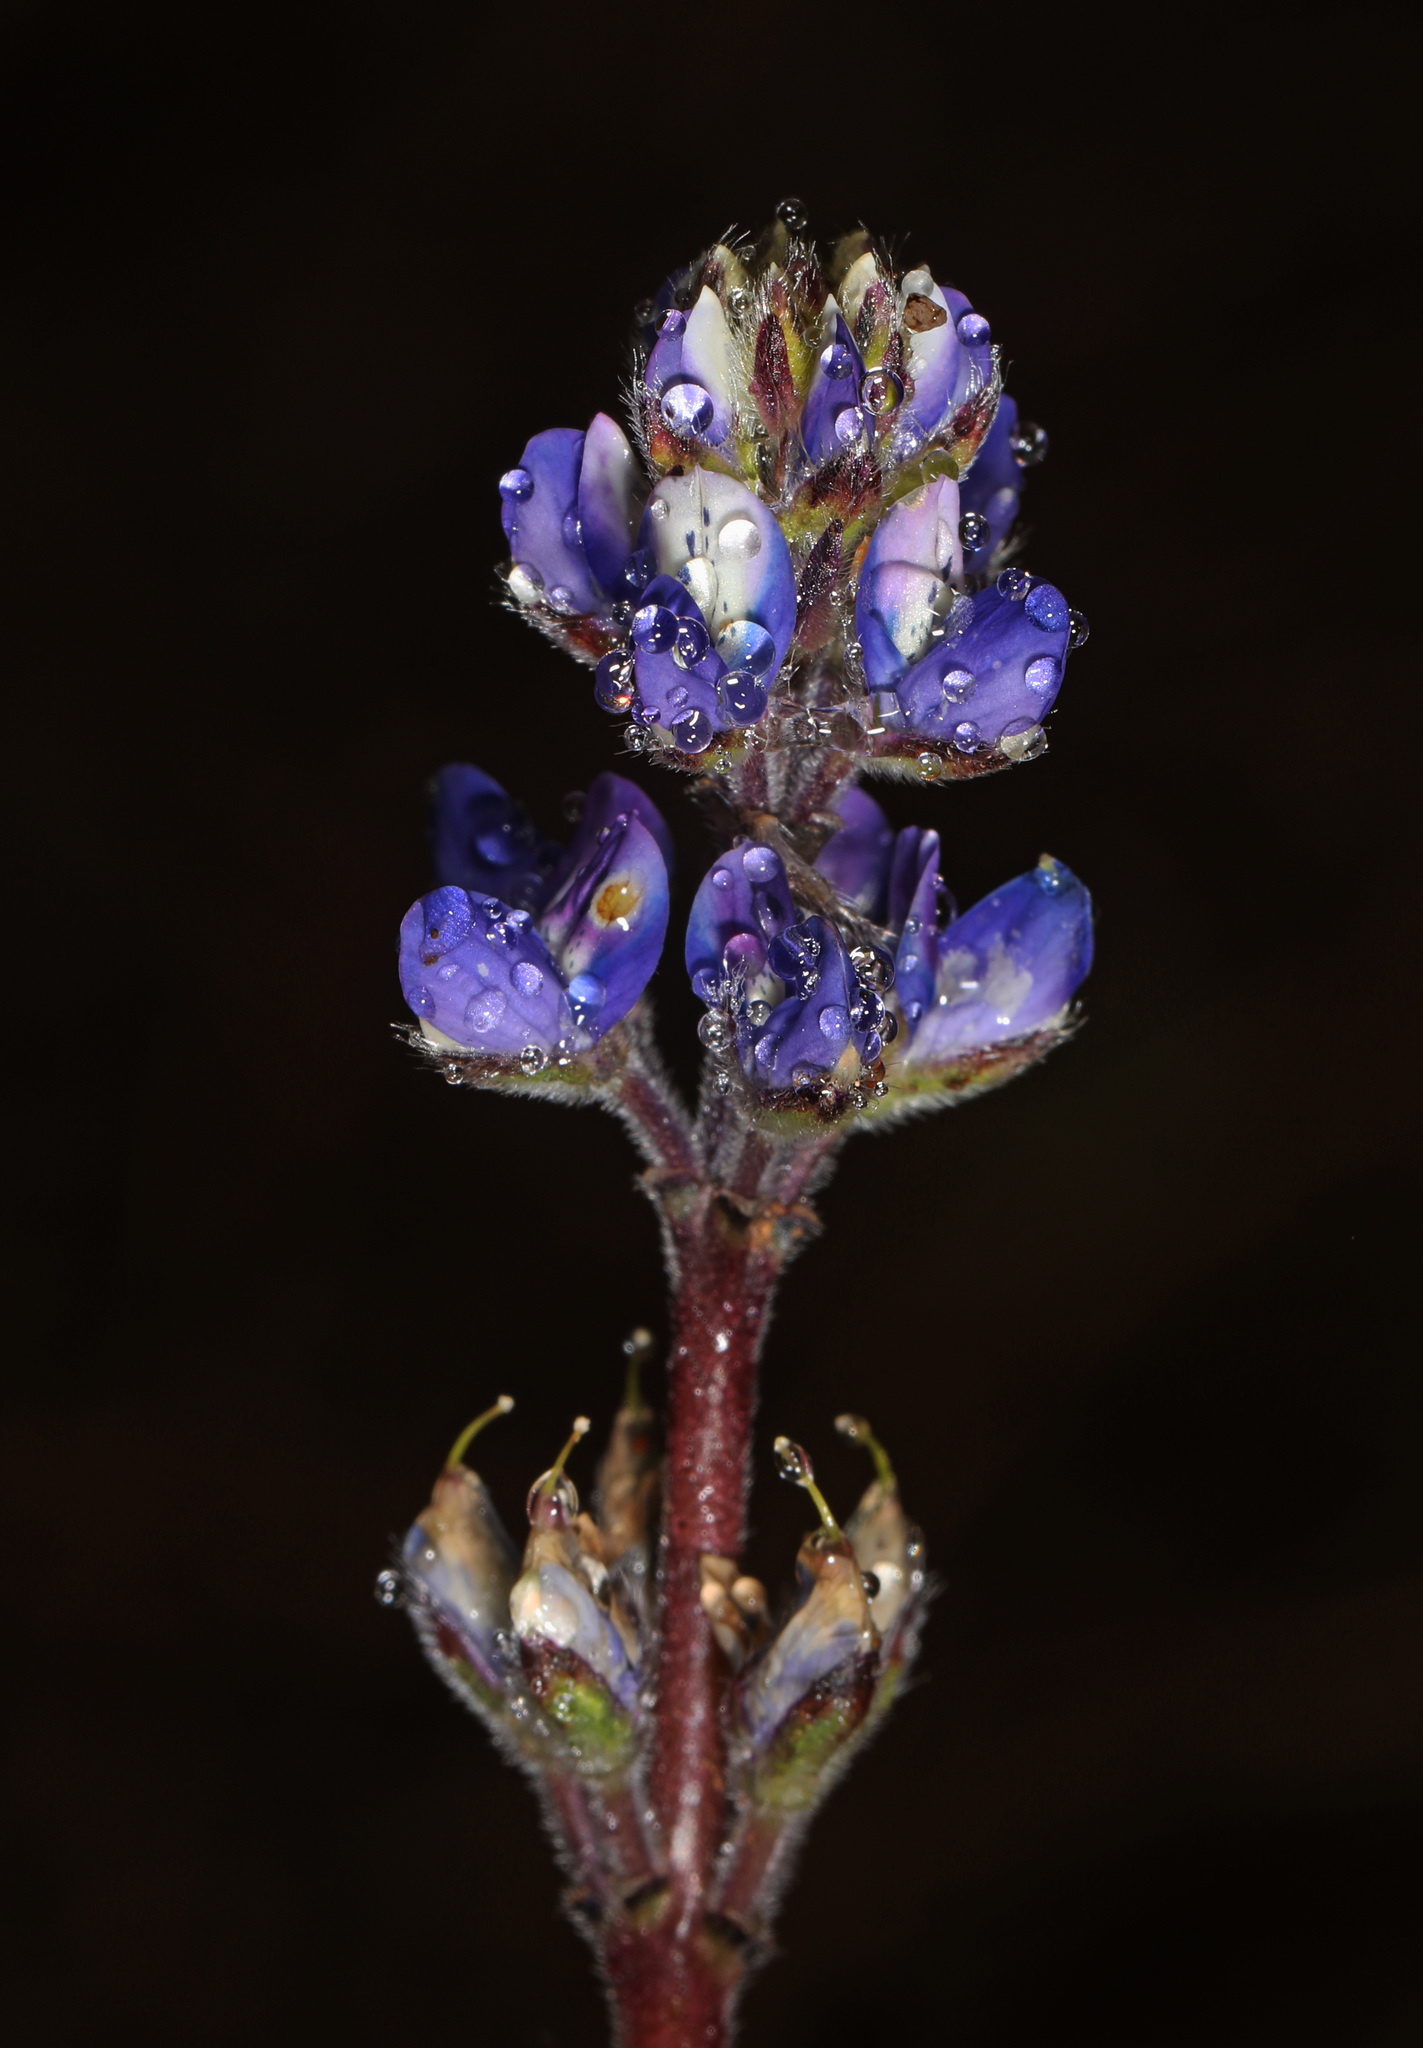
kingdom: Plantae
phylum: Tracheophyta
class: Magnoliopsida
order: Fabales
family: Fabaceae
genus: Lupinus
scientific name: Lupinus bicolor
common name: Miniature lupine
